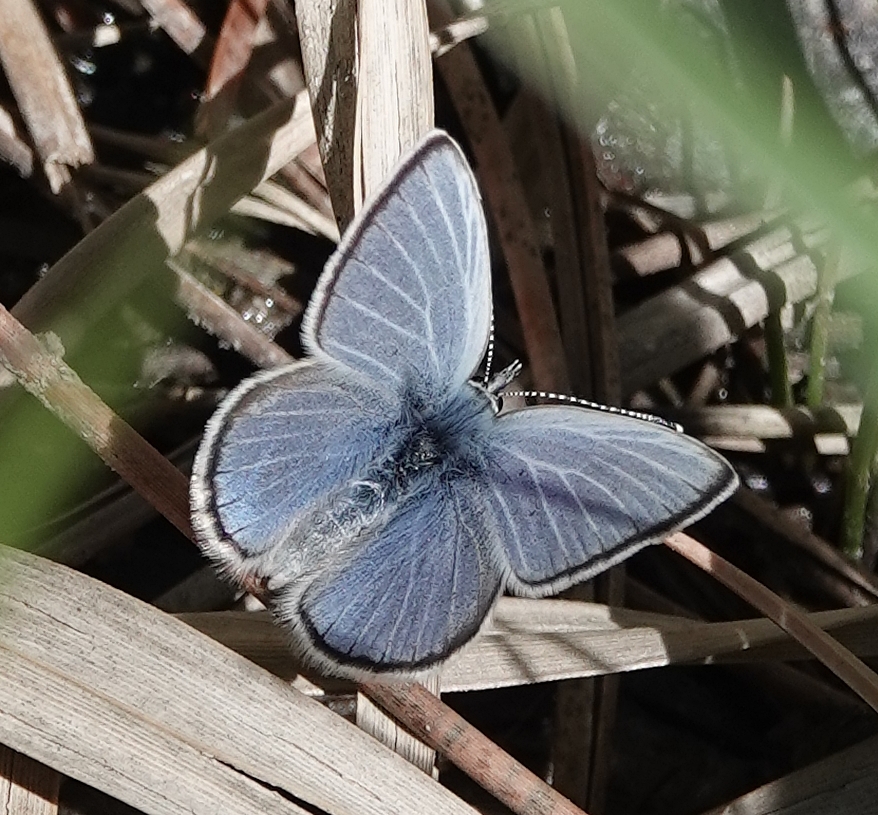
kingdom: Animalia
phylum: Arthropoda
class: Insecta
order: Lepidoptera
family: Lycaenidae
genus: Glaucopsyche
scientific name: Glaucopsyche lygdamus
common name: Silvery blue
